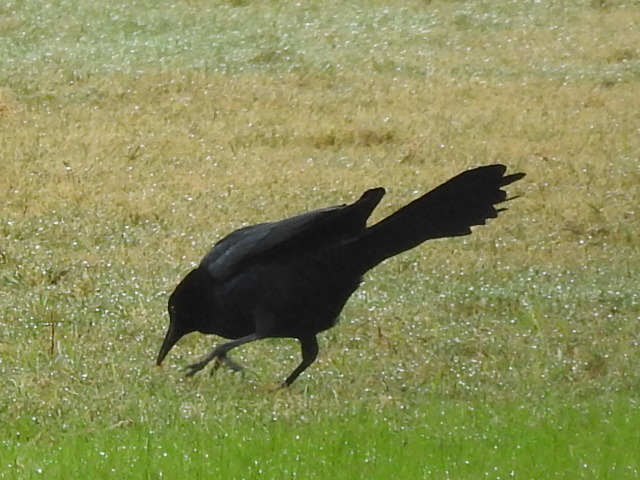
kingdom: Animalia
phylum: Chordata
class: Aves
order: Passeriformes
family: Icteridae
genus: Quiscalus
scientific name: Quiscalus mexicanus
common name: Great-tailed grackle
